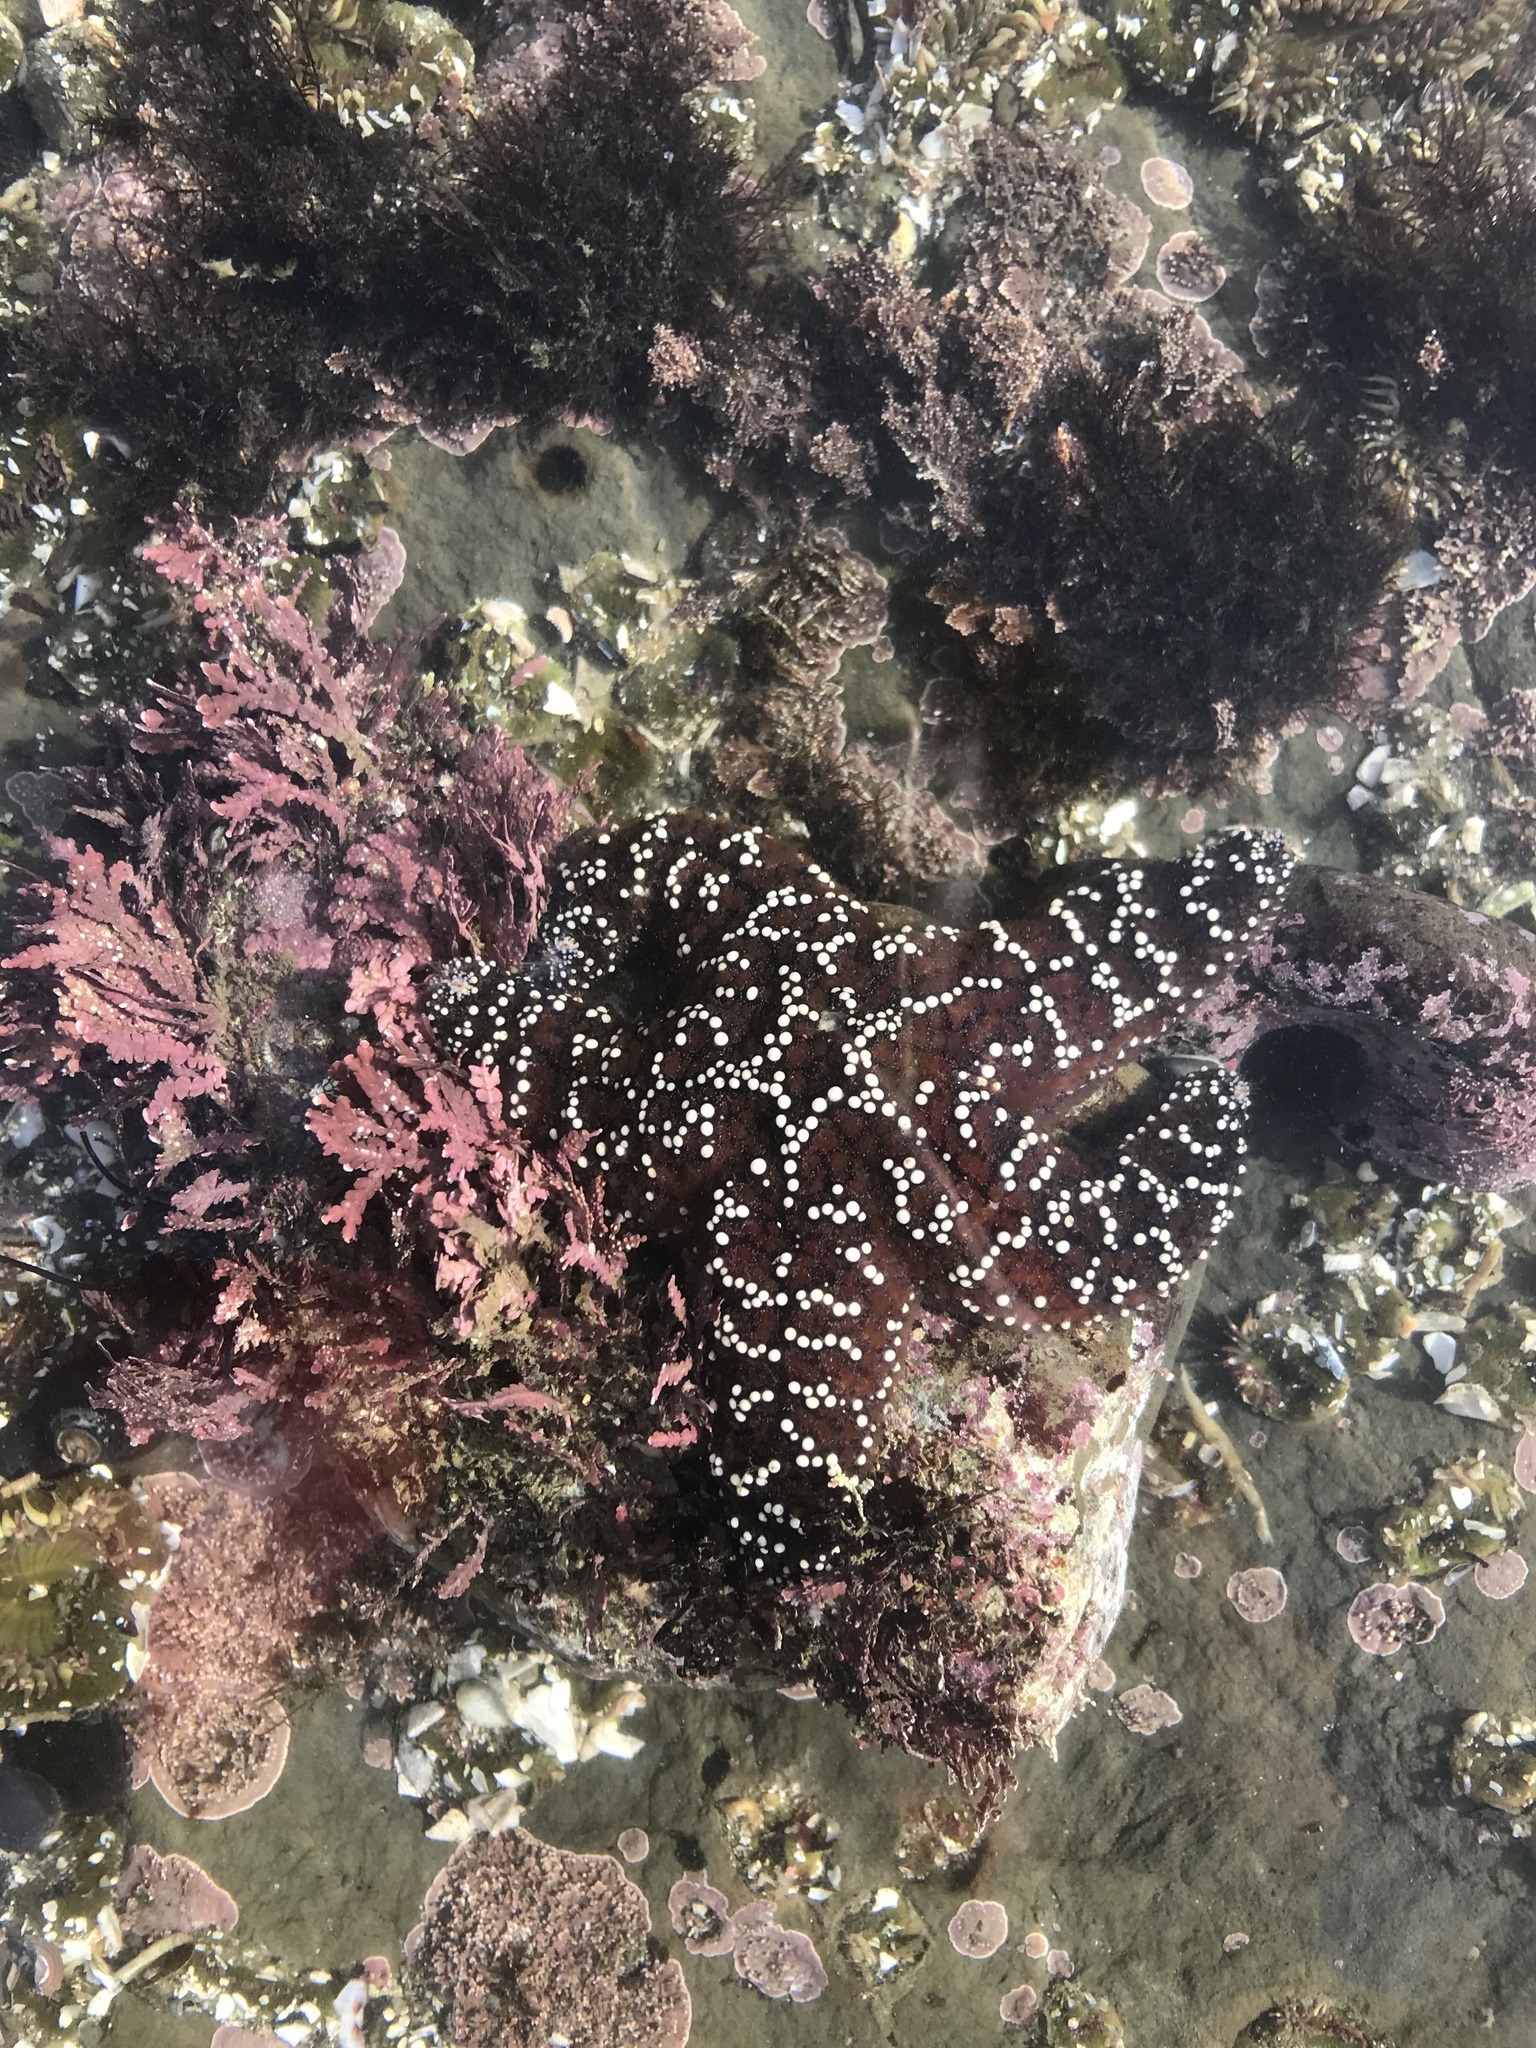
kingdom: Animalia
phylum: Echinodermata
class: Asteroidea
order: Forcipulatida
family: Asteriidae
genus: Pisaster
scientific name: Pisaster ochraceus
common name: Ochre stars
